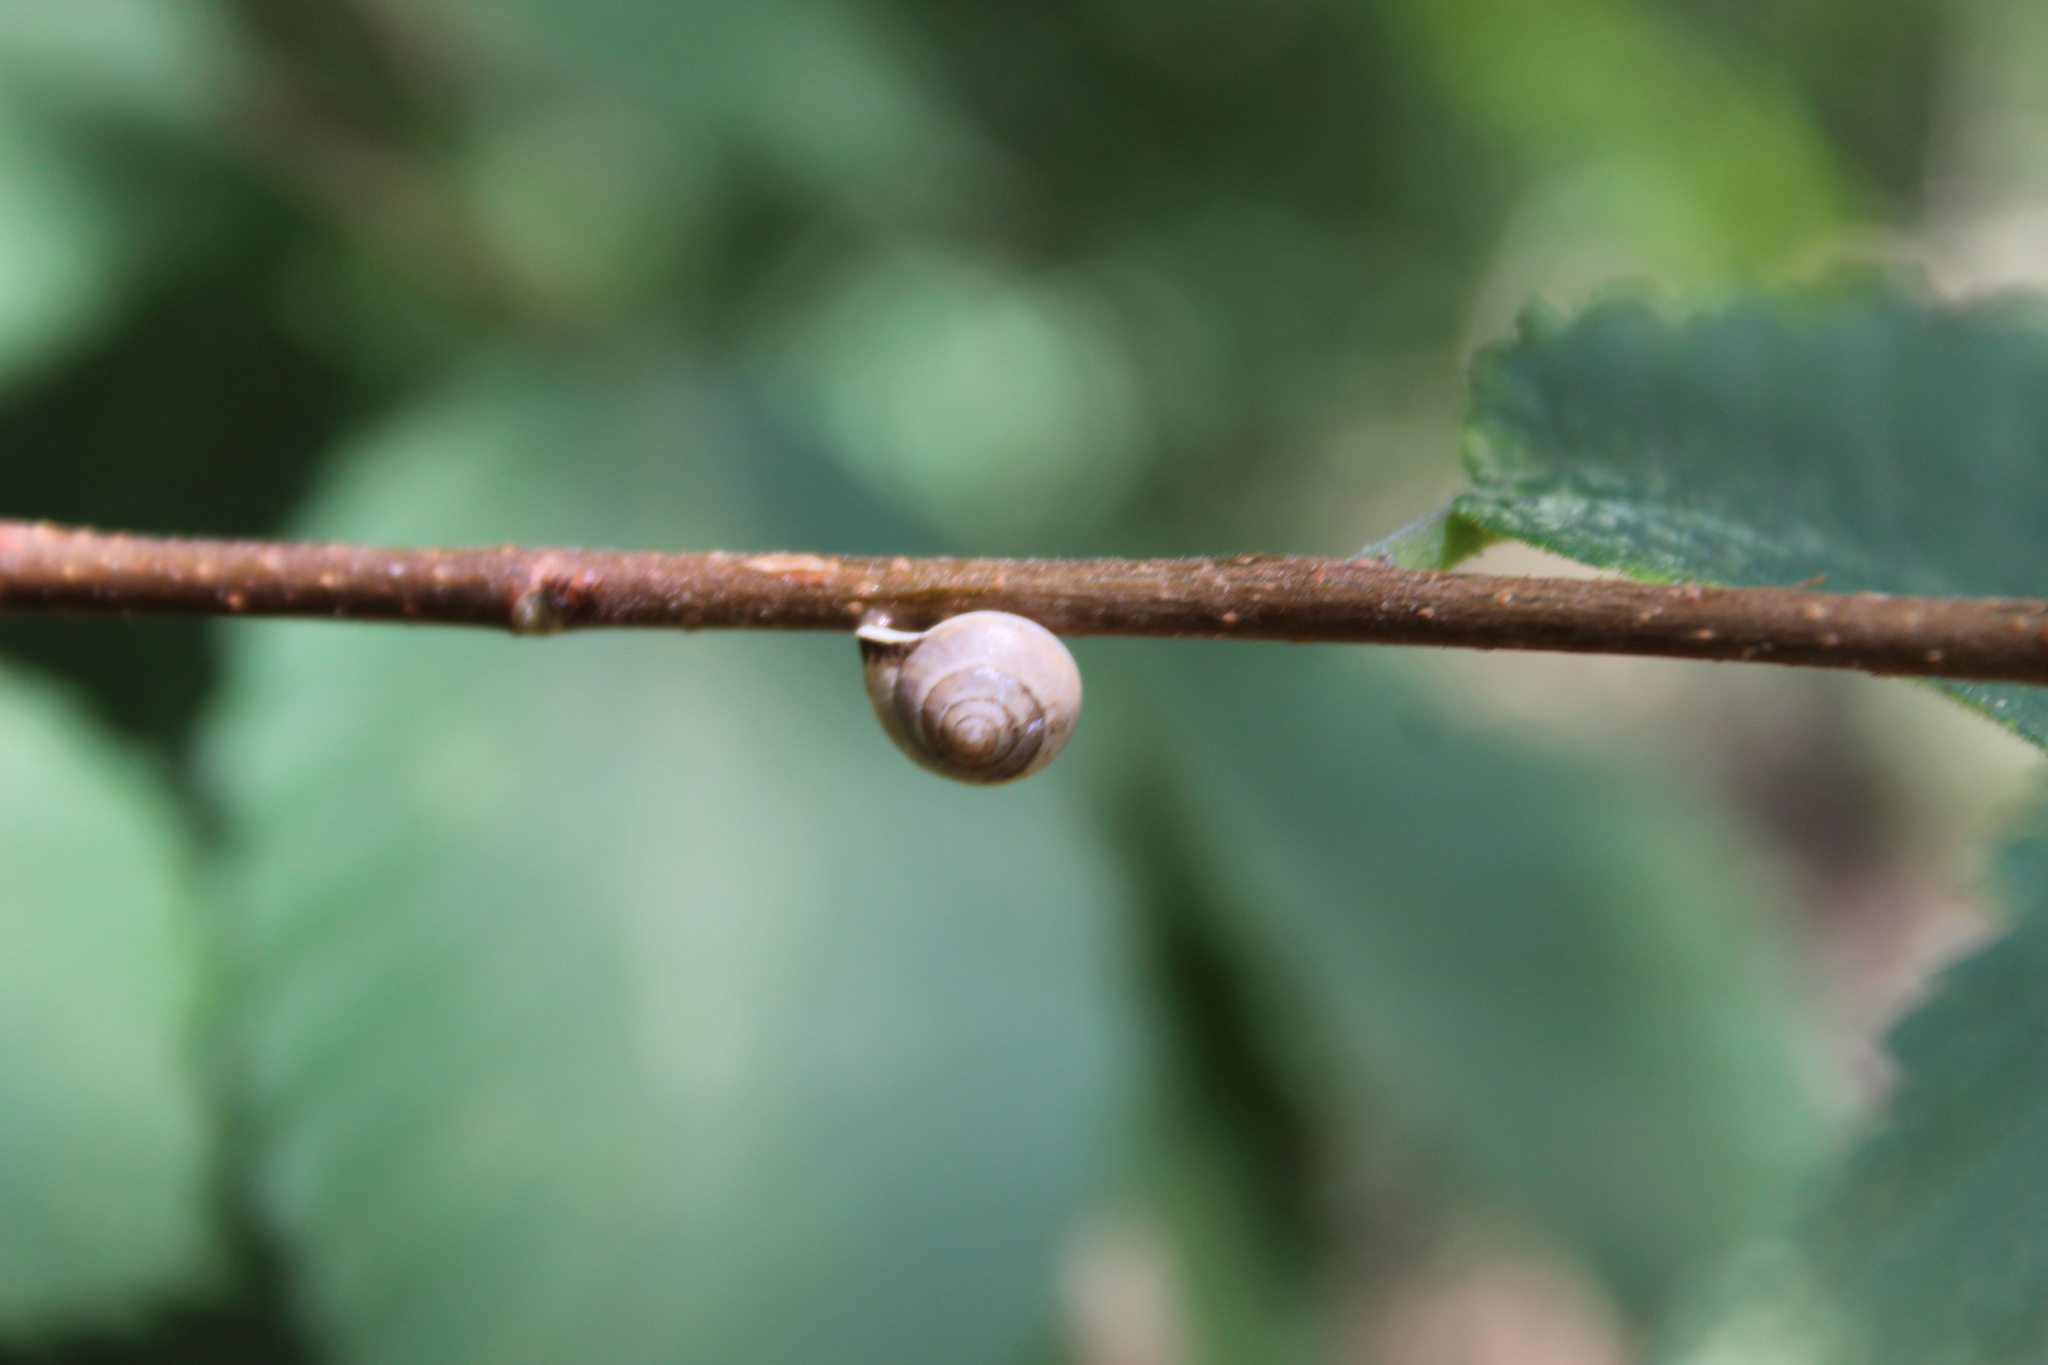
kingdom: Animalia
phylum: Mollusca
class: Gastropoda
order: Cycloneritida
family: Helicinidae
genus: Helicina
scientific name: Helicina orbiculata
